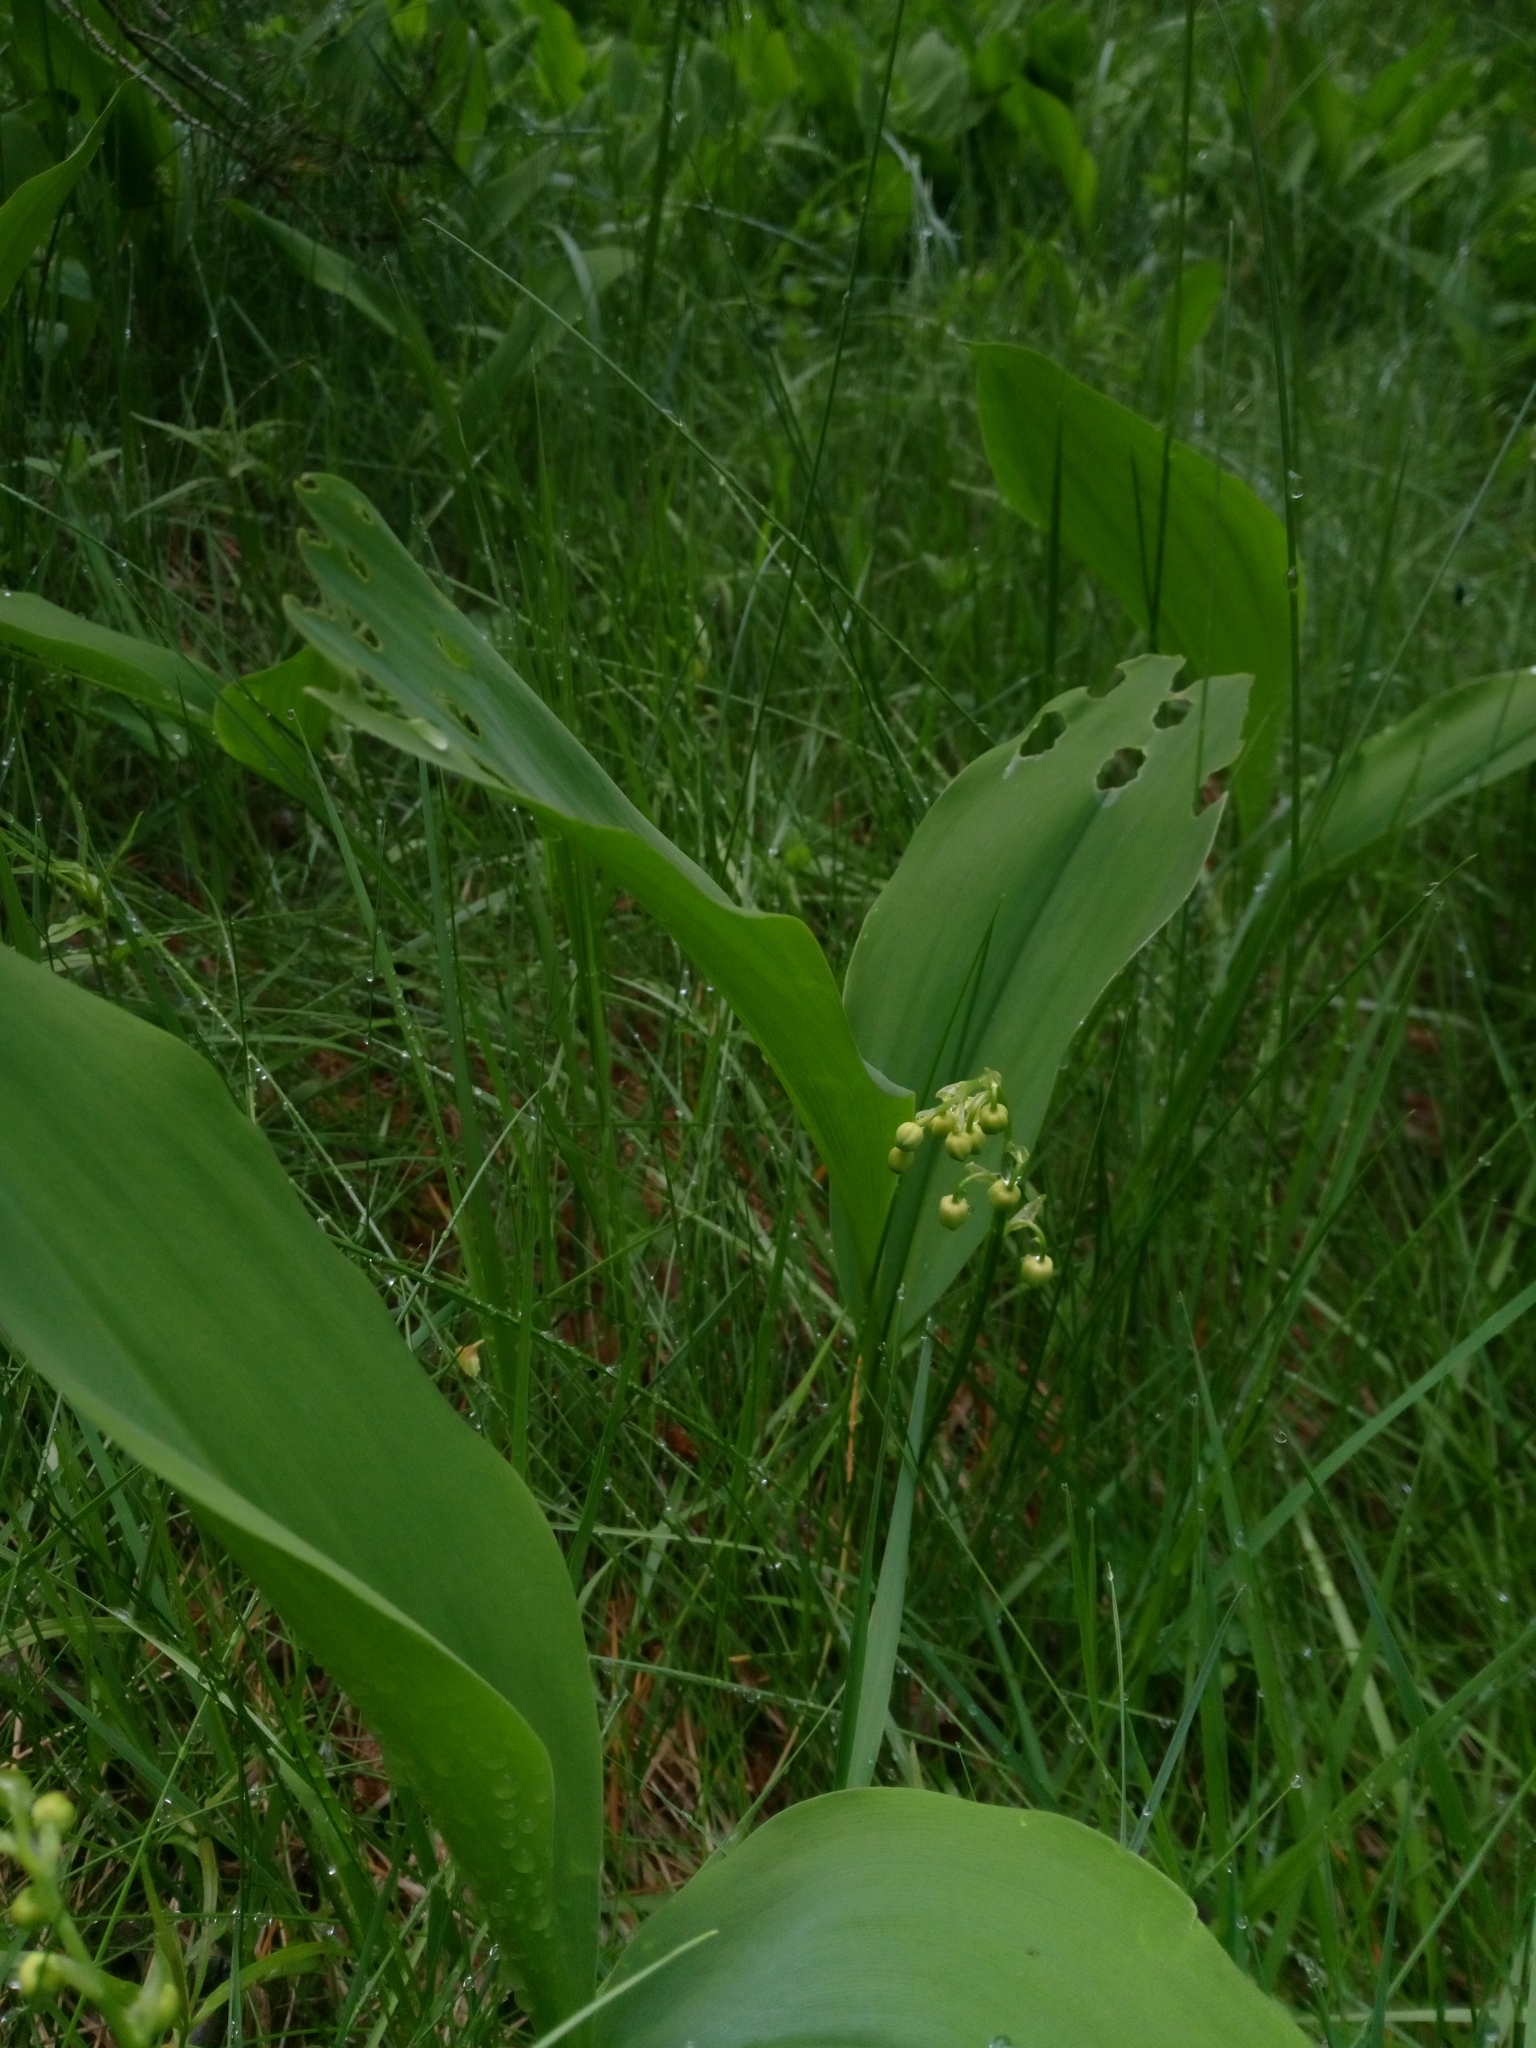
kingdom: Plantae
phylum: Tracheophyta
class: Liliopsida
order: Asparagales
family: Asparagaceae
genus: Convallaria
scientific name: Convallaria majalis
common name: Lily-of-the-valley
